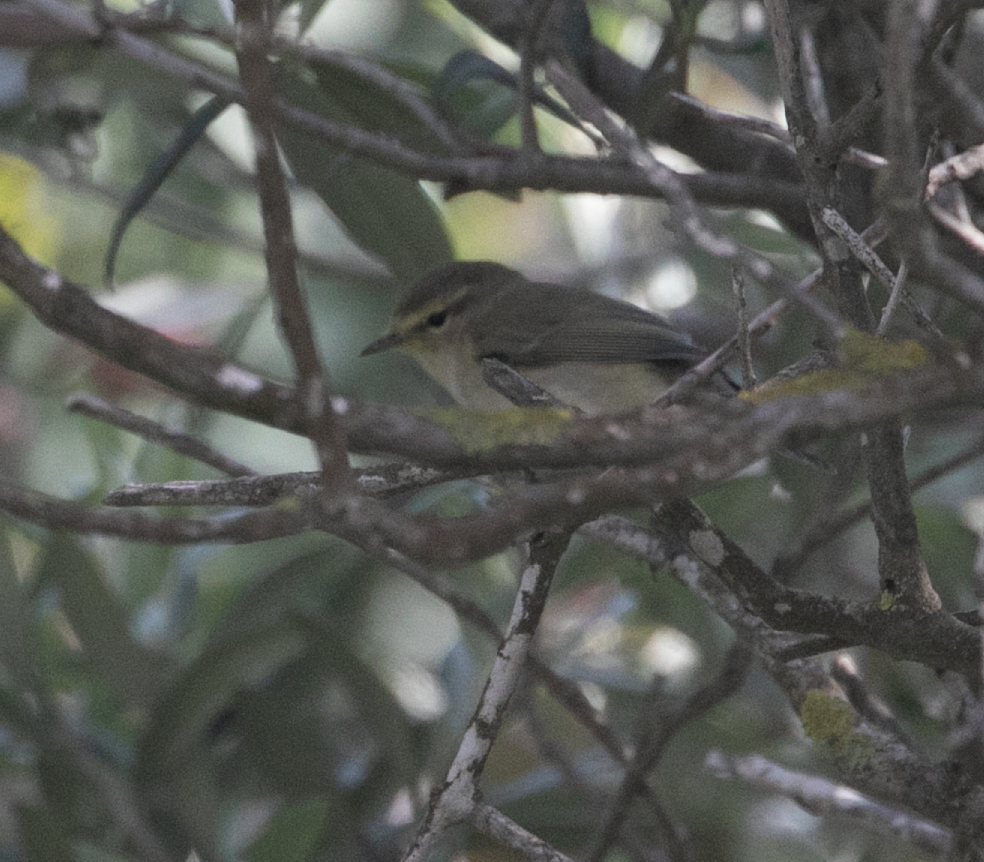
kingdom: Animalia
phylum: Chordata
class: Aves
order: Passeriformes
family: Phylloscopidae
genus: Phylloscopus
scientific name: Phylloscopus collybita
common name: Common chiffchaff
